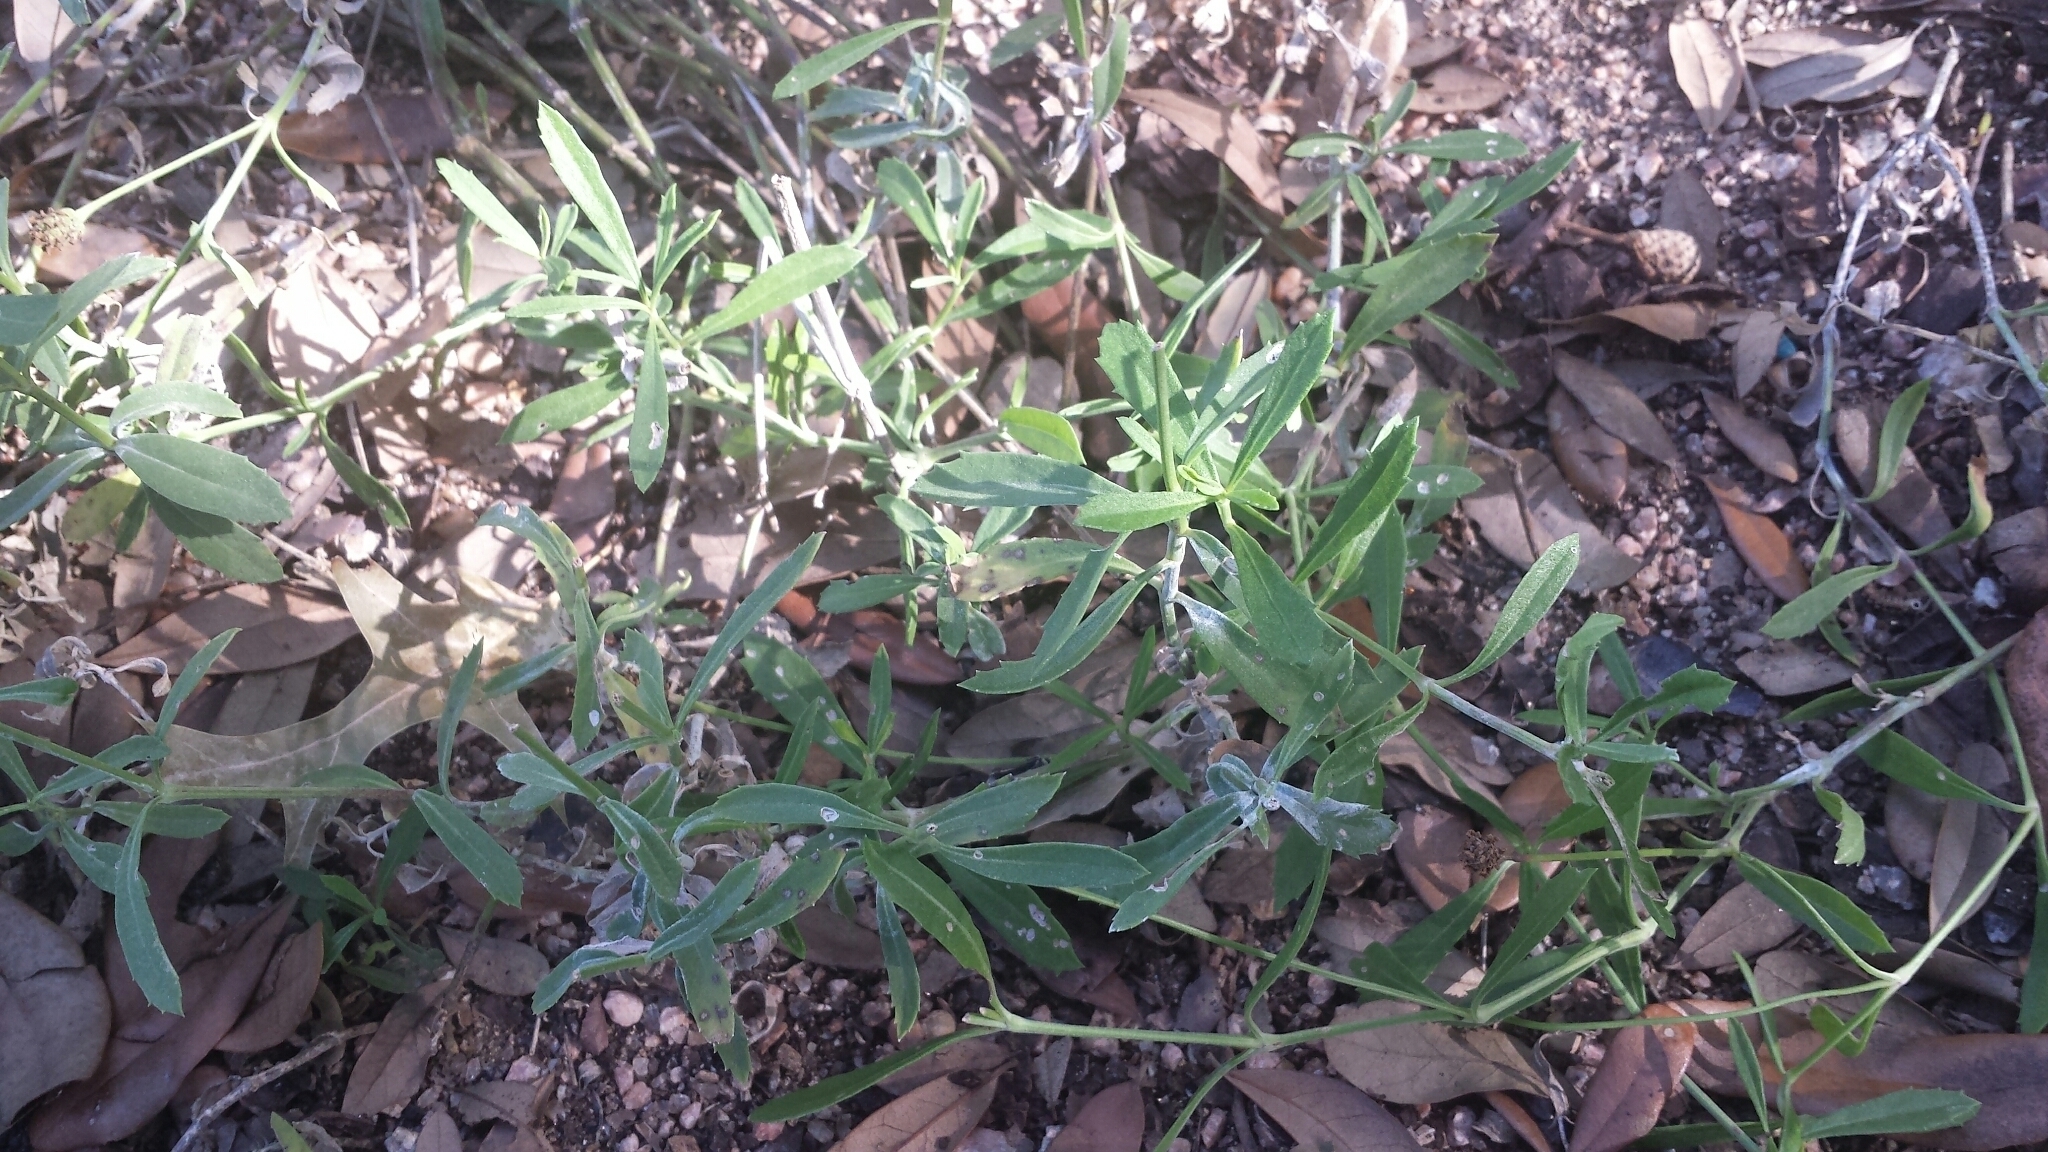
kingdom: Plantae
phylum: Tracheophyta
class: Magnoliopsida
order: Lamiales
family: Verbenaceae
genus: Phyla
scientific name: Phyla nodiflora
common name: Frogfruit
